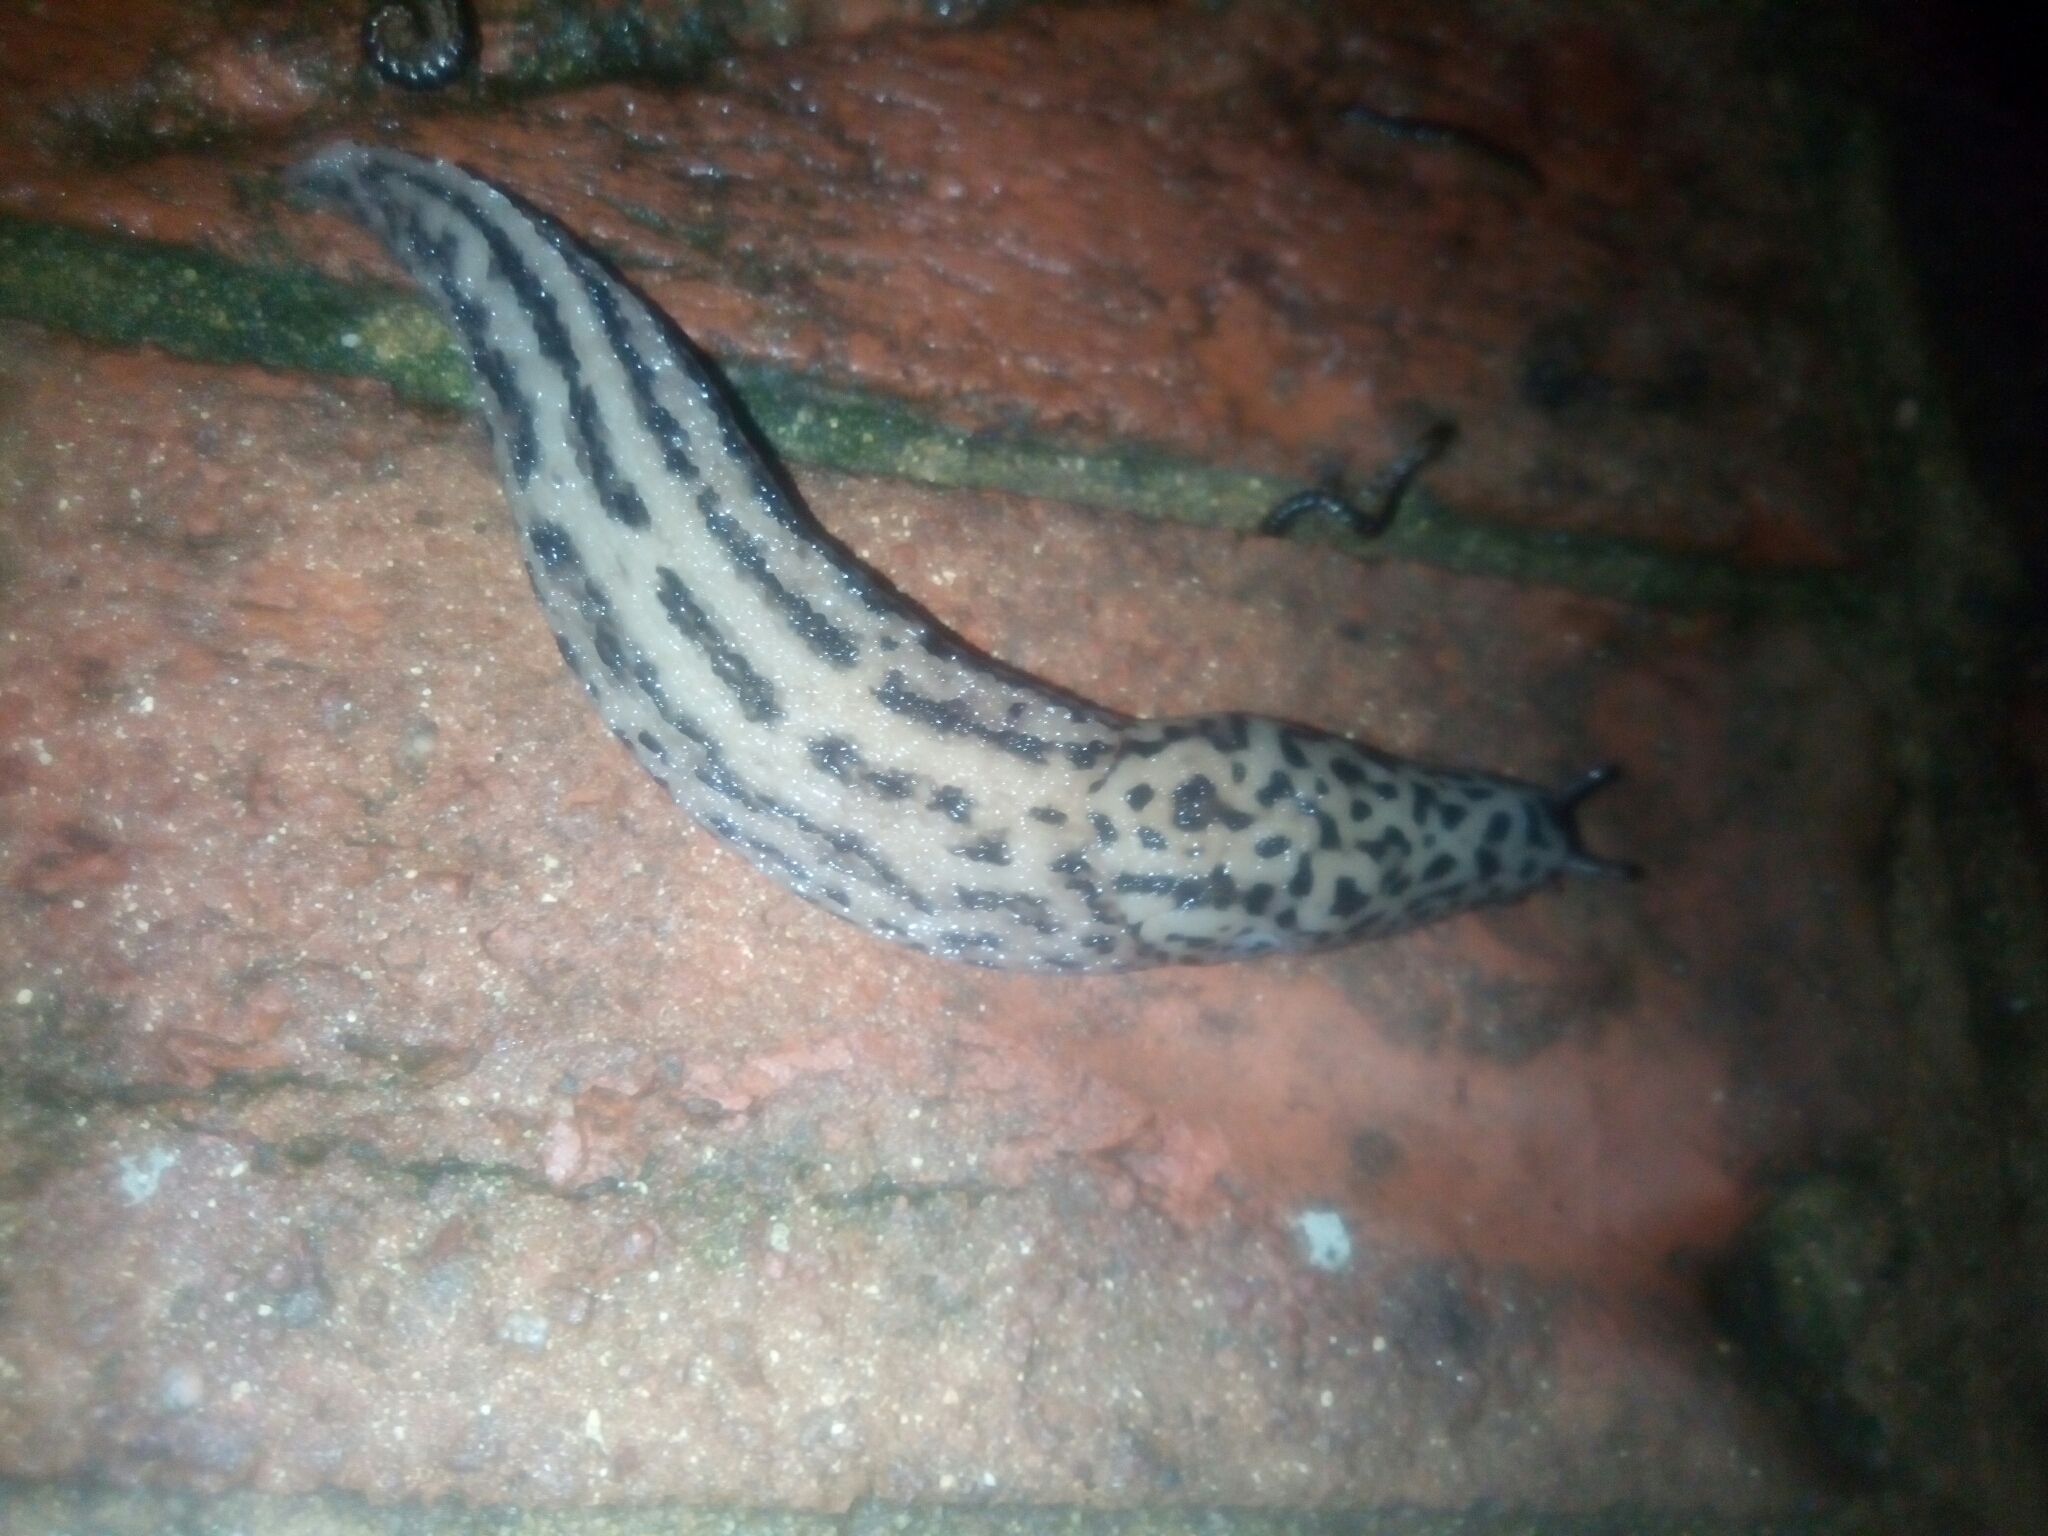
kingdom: Animalia
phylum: Mollusca
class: Gastropoda
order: Stylommatophora
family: Limacidae
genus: Limax
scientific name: Limax maximus
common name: Great grey slug
